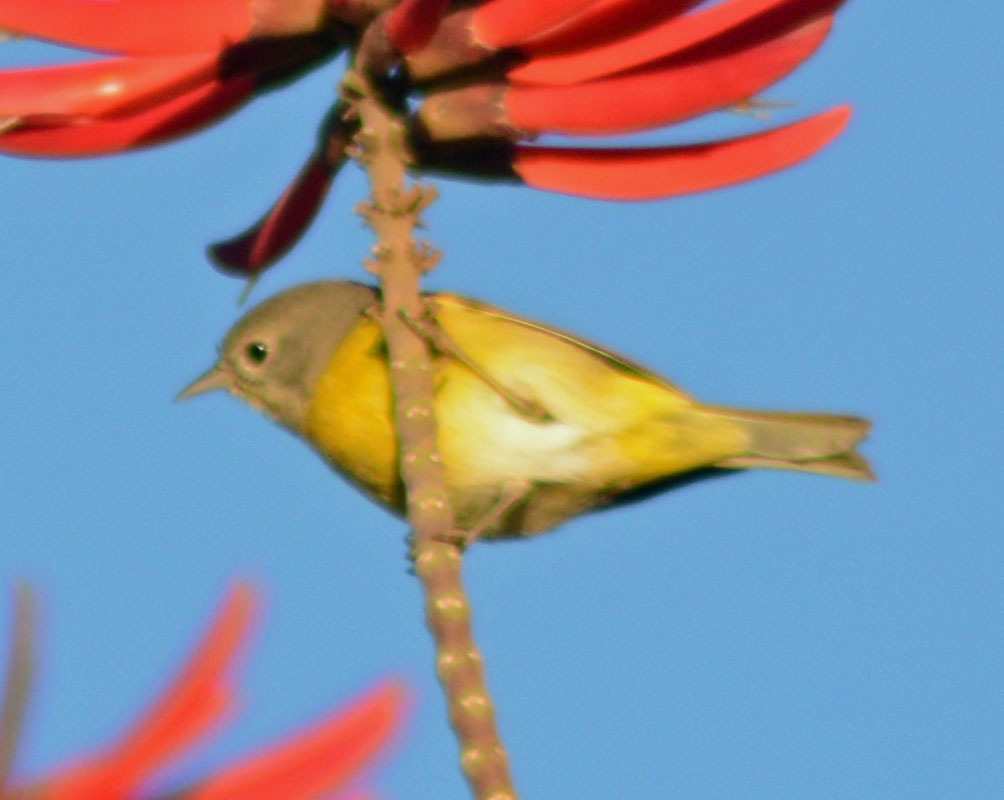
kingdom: Animalia
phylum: Chordata
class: Aves
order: Passeriformes
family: Parulidae
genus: Leiothlypis
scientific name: Leiothlypis ruficapilla
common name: Nashville warbler
